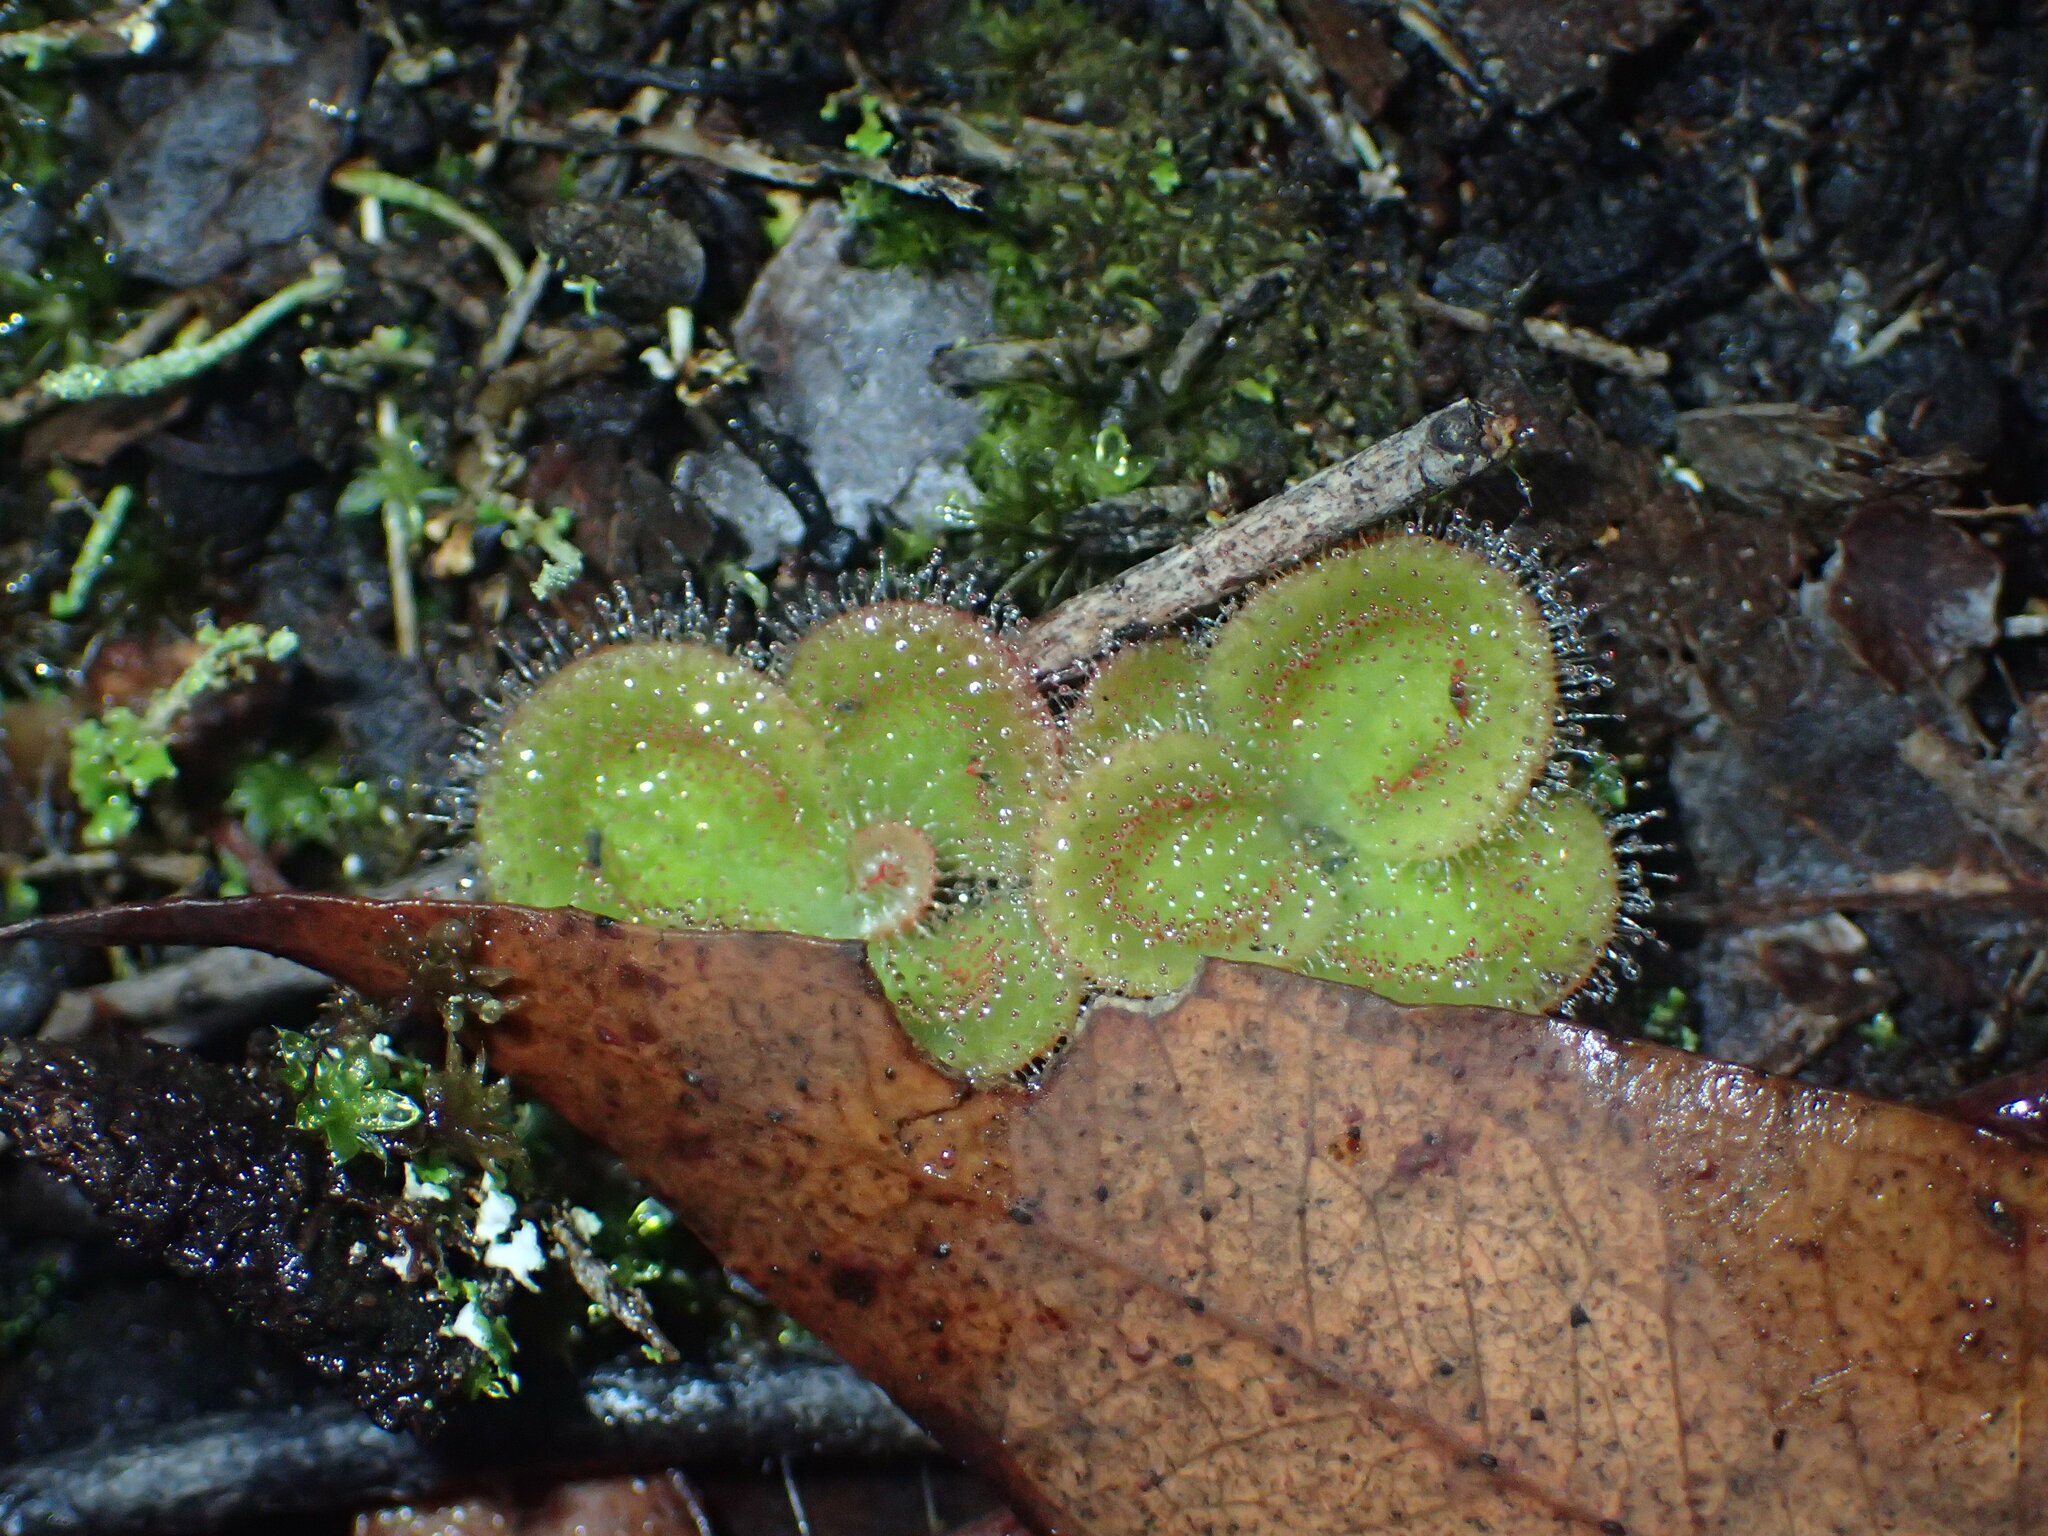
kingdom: Plantae
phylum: Tracheophyta
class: Magnoliopsida
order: Caryophyllales
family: Droseraceae
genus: Drosera
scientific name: Drosera erythrorhiza
